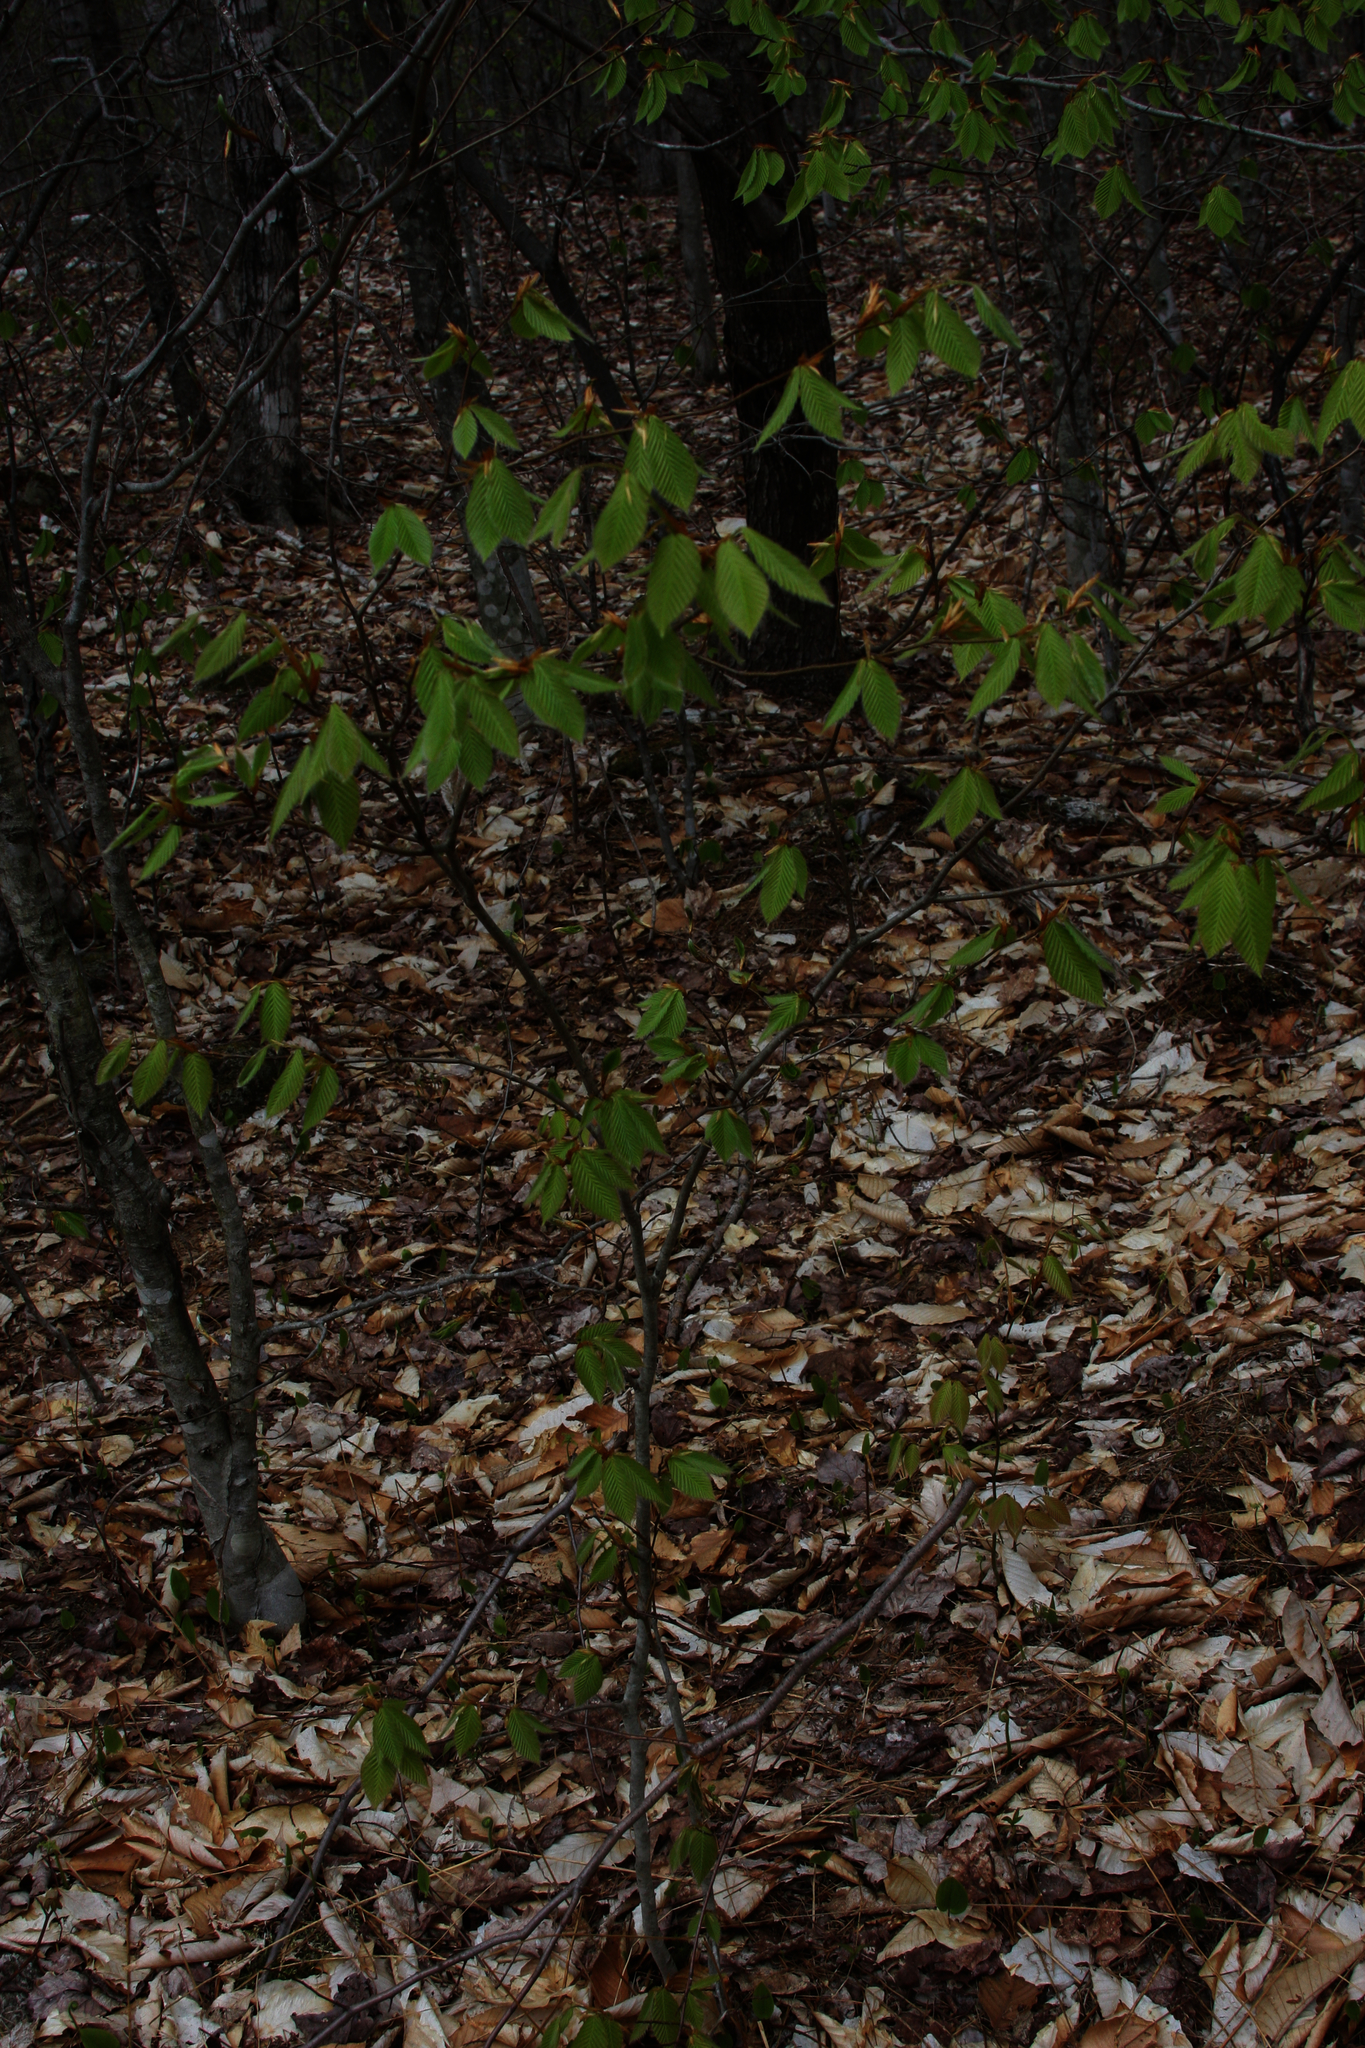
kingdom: Plantae
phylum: Tracheophyta
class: Magnoliopsida
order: Fagales
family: Fagaceae
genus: Fagus
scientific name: Fagus grandifolia
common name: American beech
